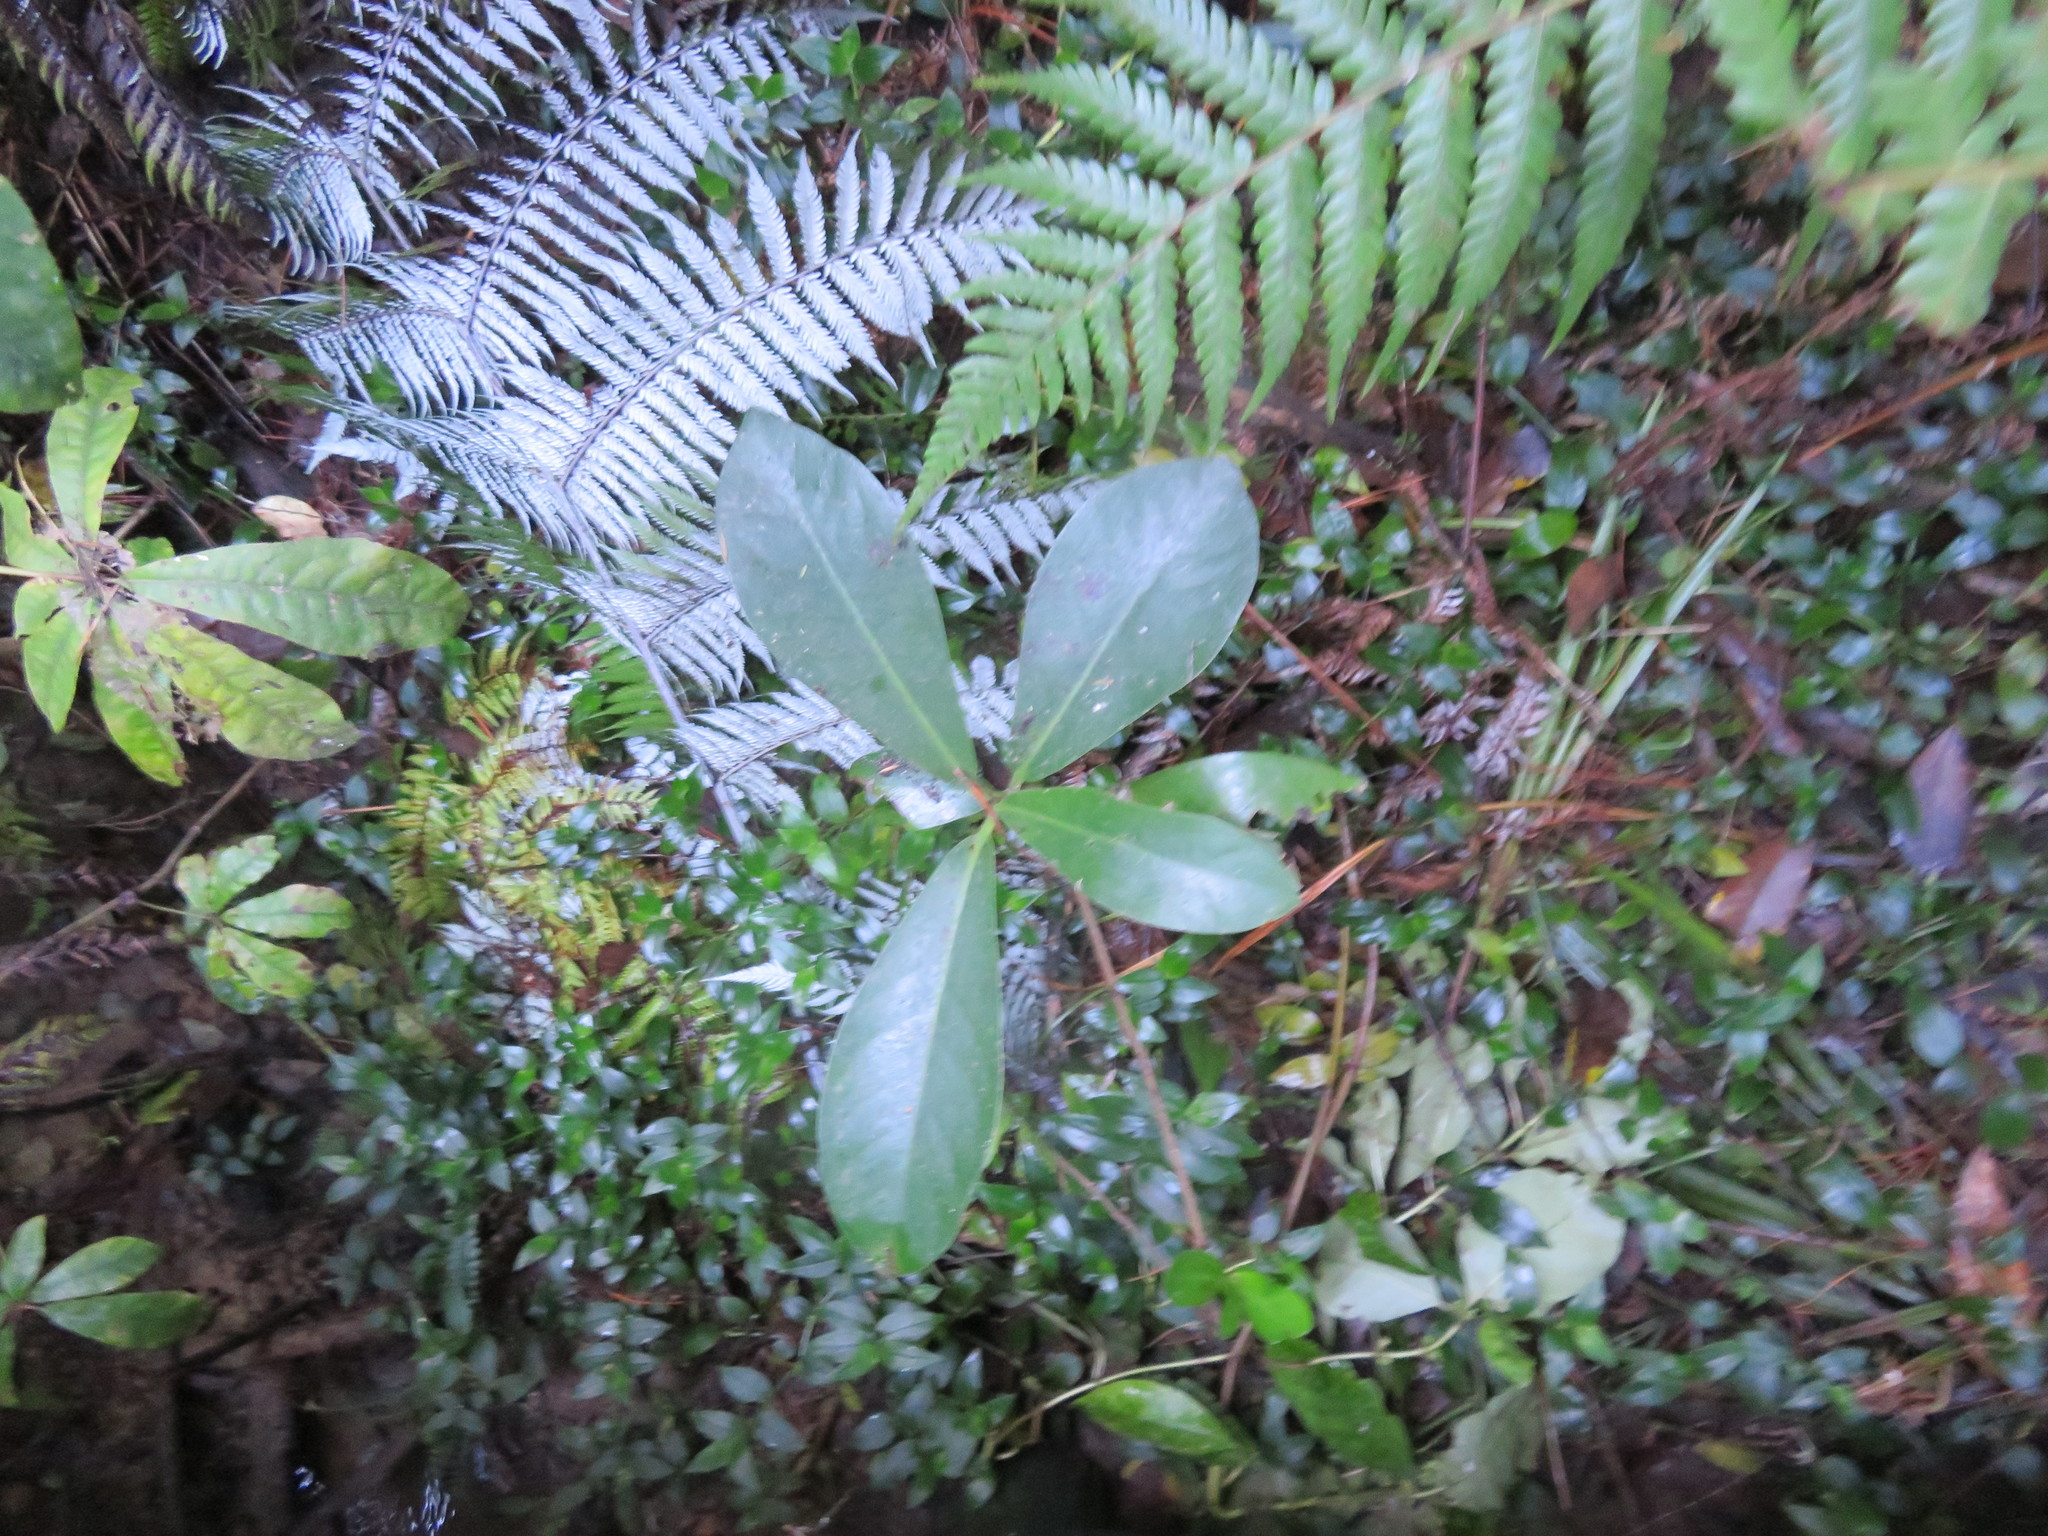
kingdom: Plantae
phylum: Tracheophyta
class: Magnoliopsida
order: Cucurbitales
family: Corynocarpaceae
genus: Corynocarpus
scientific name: Corynocarpus laevigatus
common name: New zealand laurel
